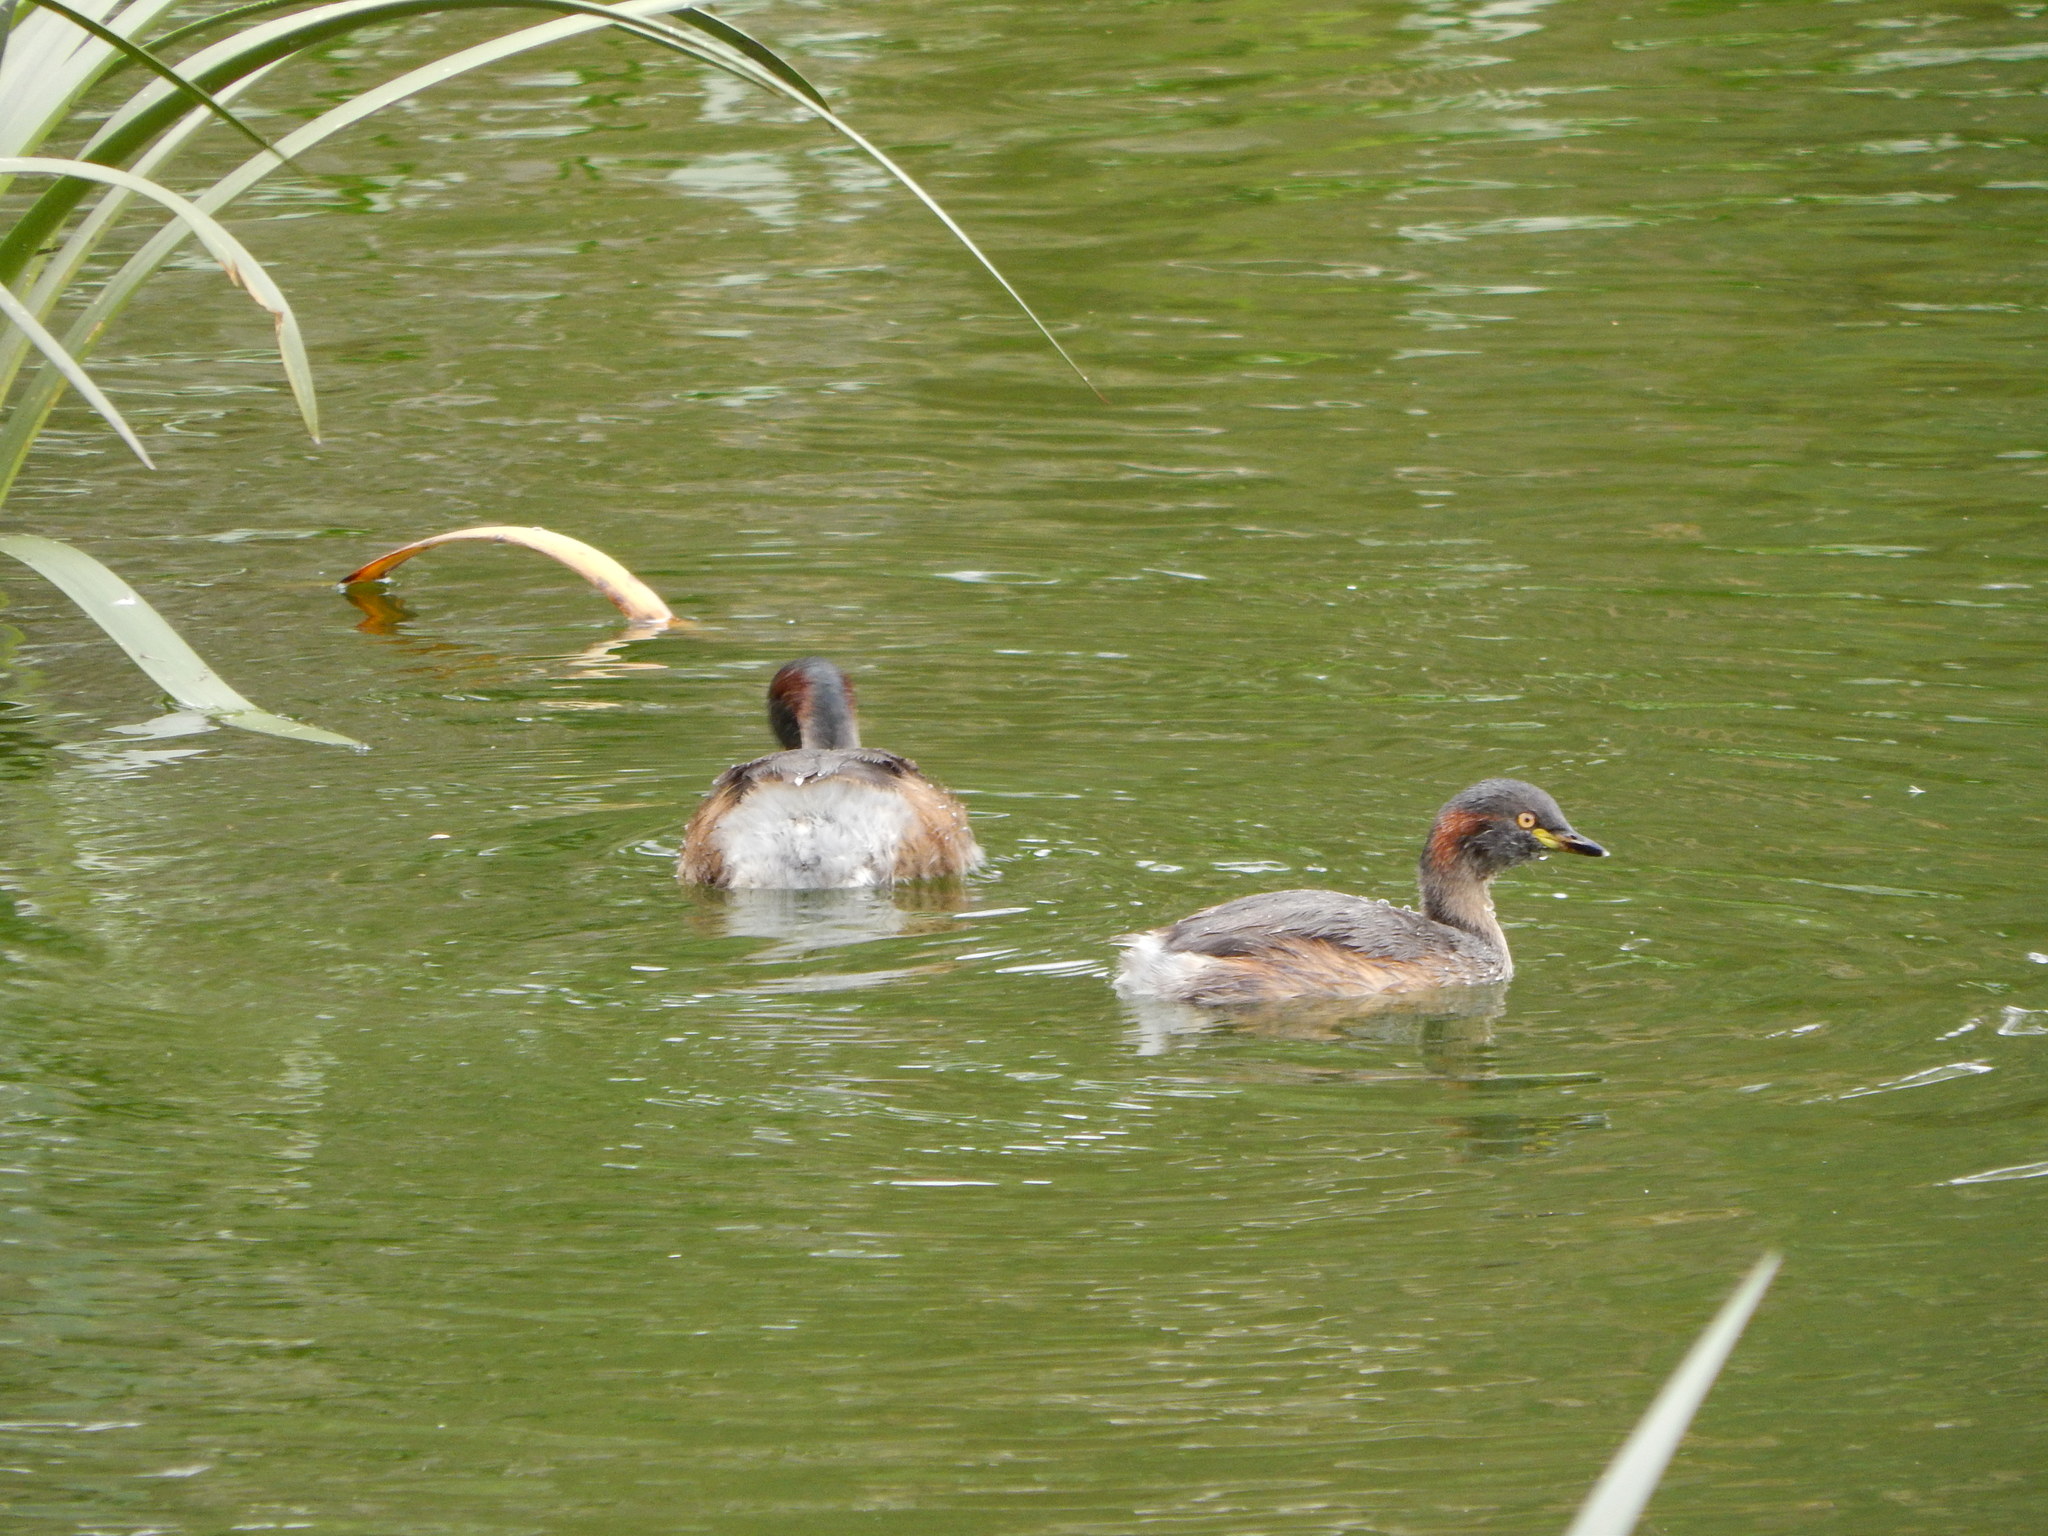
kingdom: Animalia
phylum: Chordata
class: Aves
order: Podicipediformes
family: Podicipedidae
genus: Tachybaptus
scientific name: Tachybaptus novaehollandiae
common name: Australasian grebe
